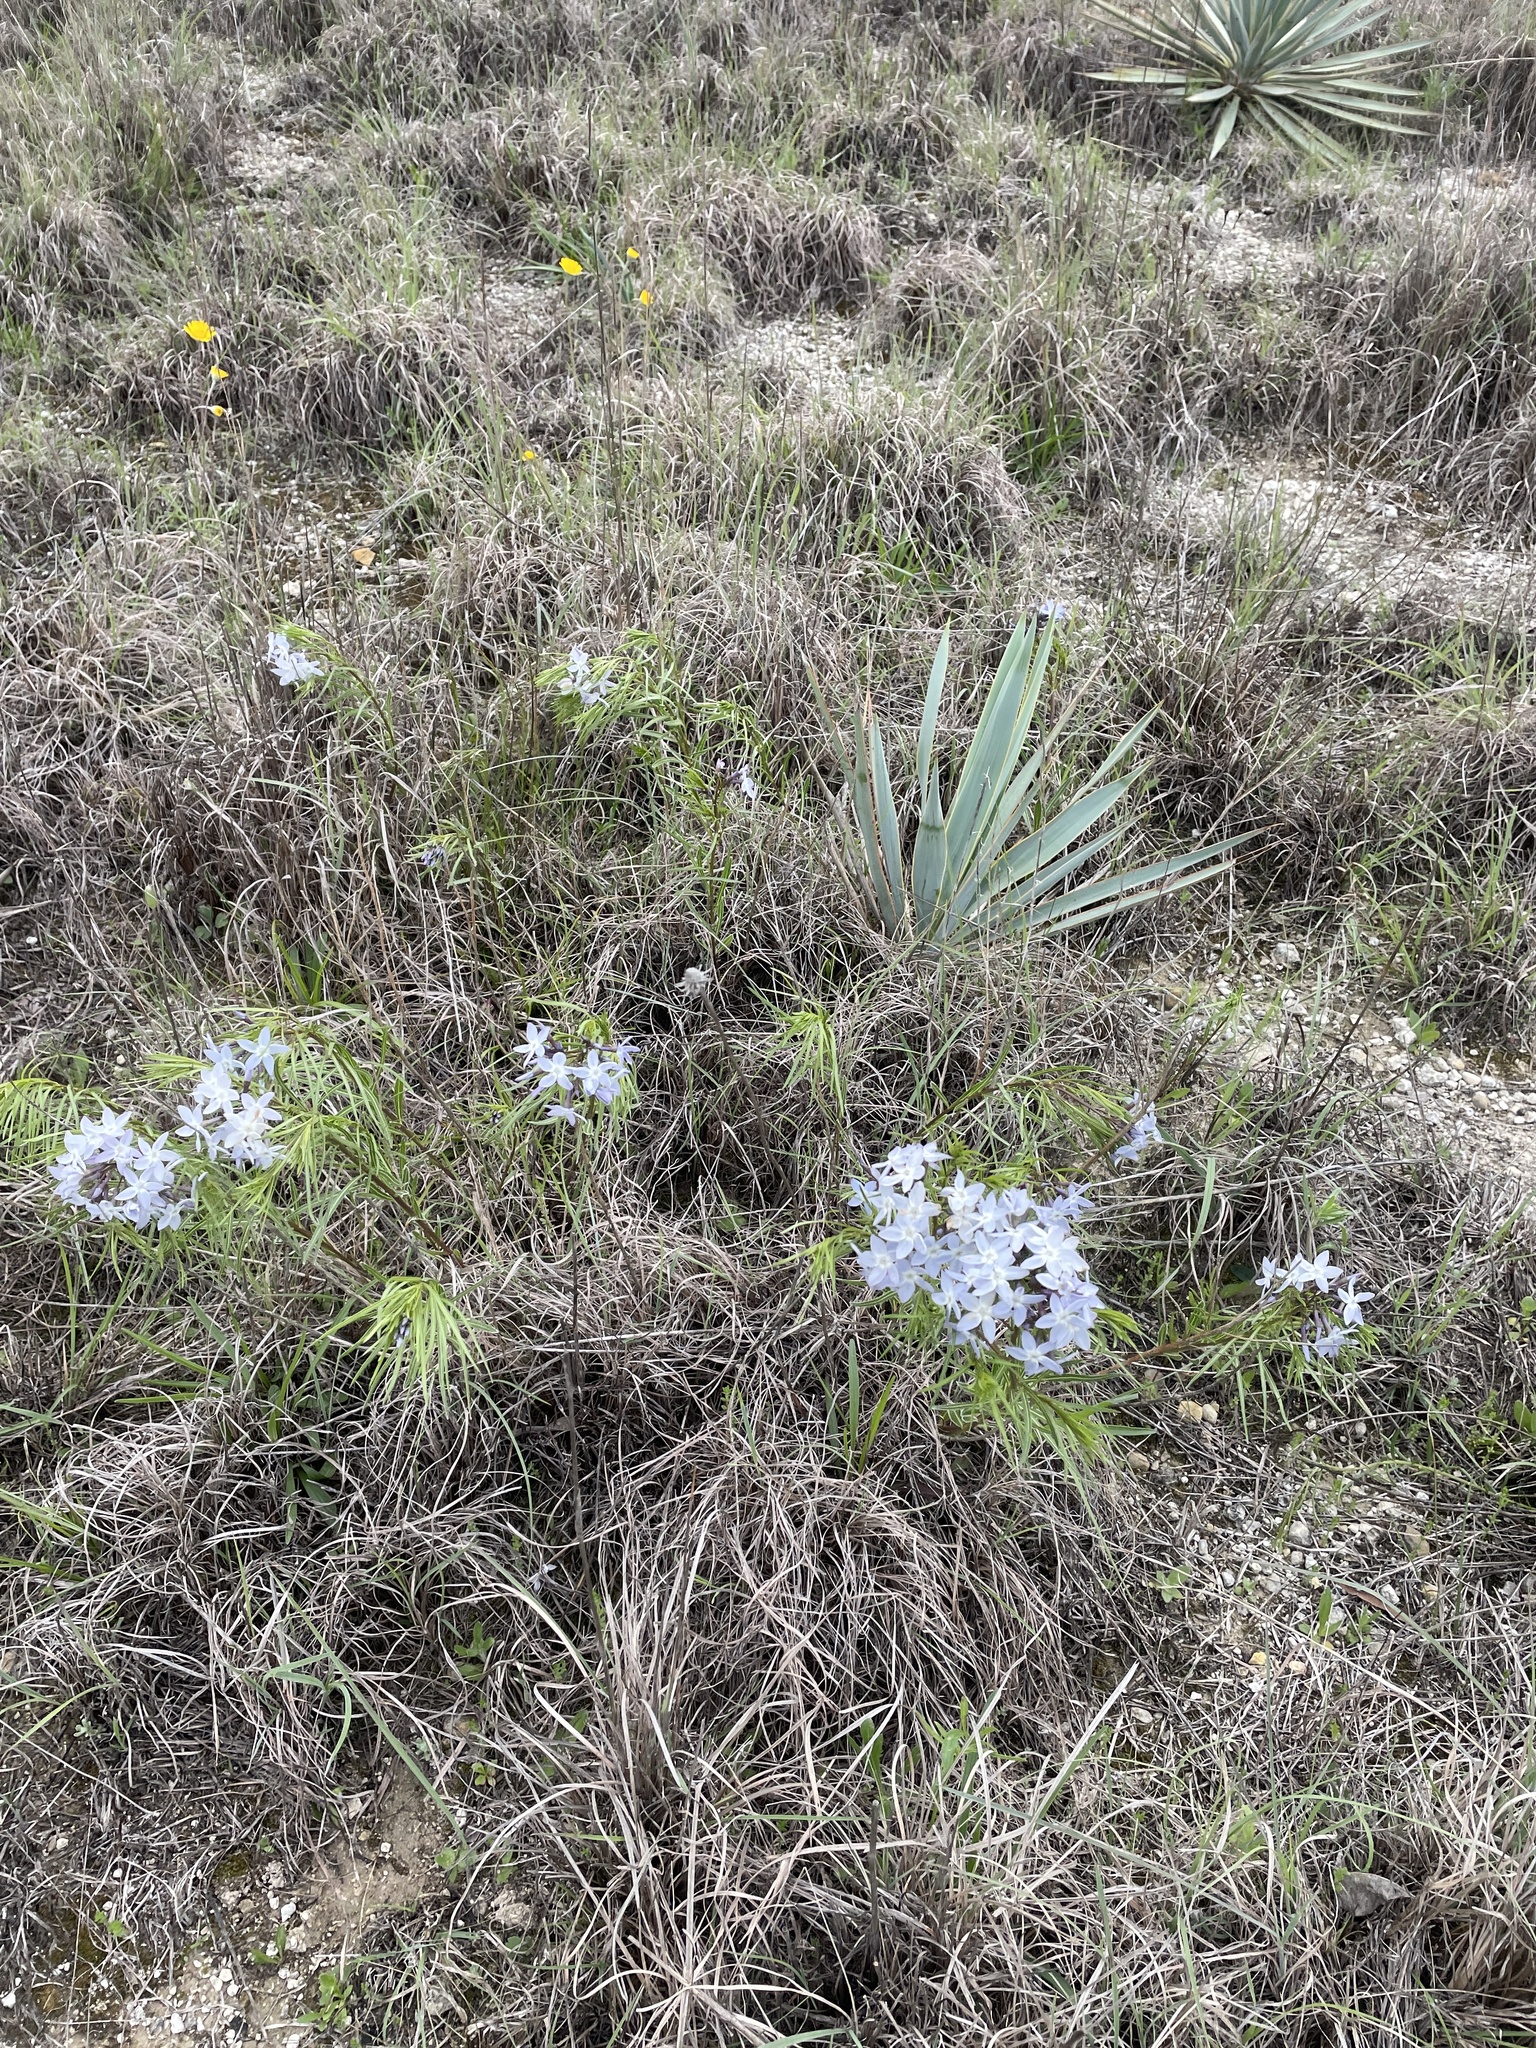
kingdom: Plantae
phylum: Tracheophyta
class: Magnoliopsida
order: Gentianales
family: Apocynaceae
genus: Amsonia
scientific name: Amsonia ciliata
